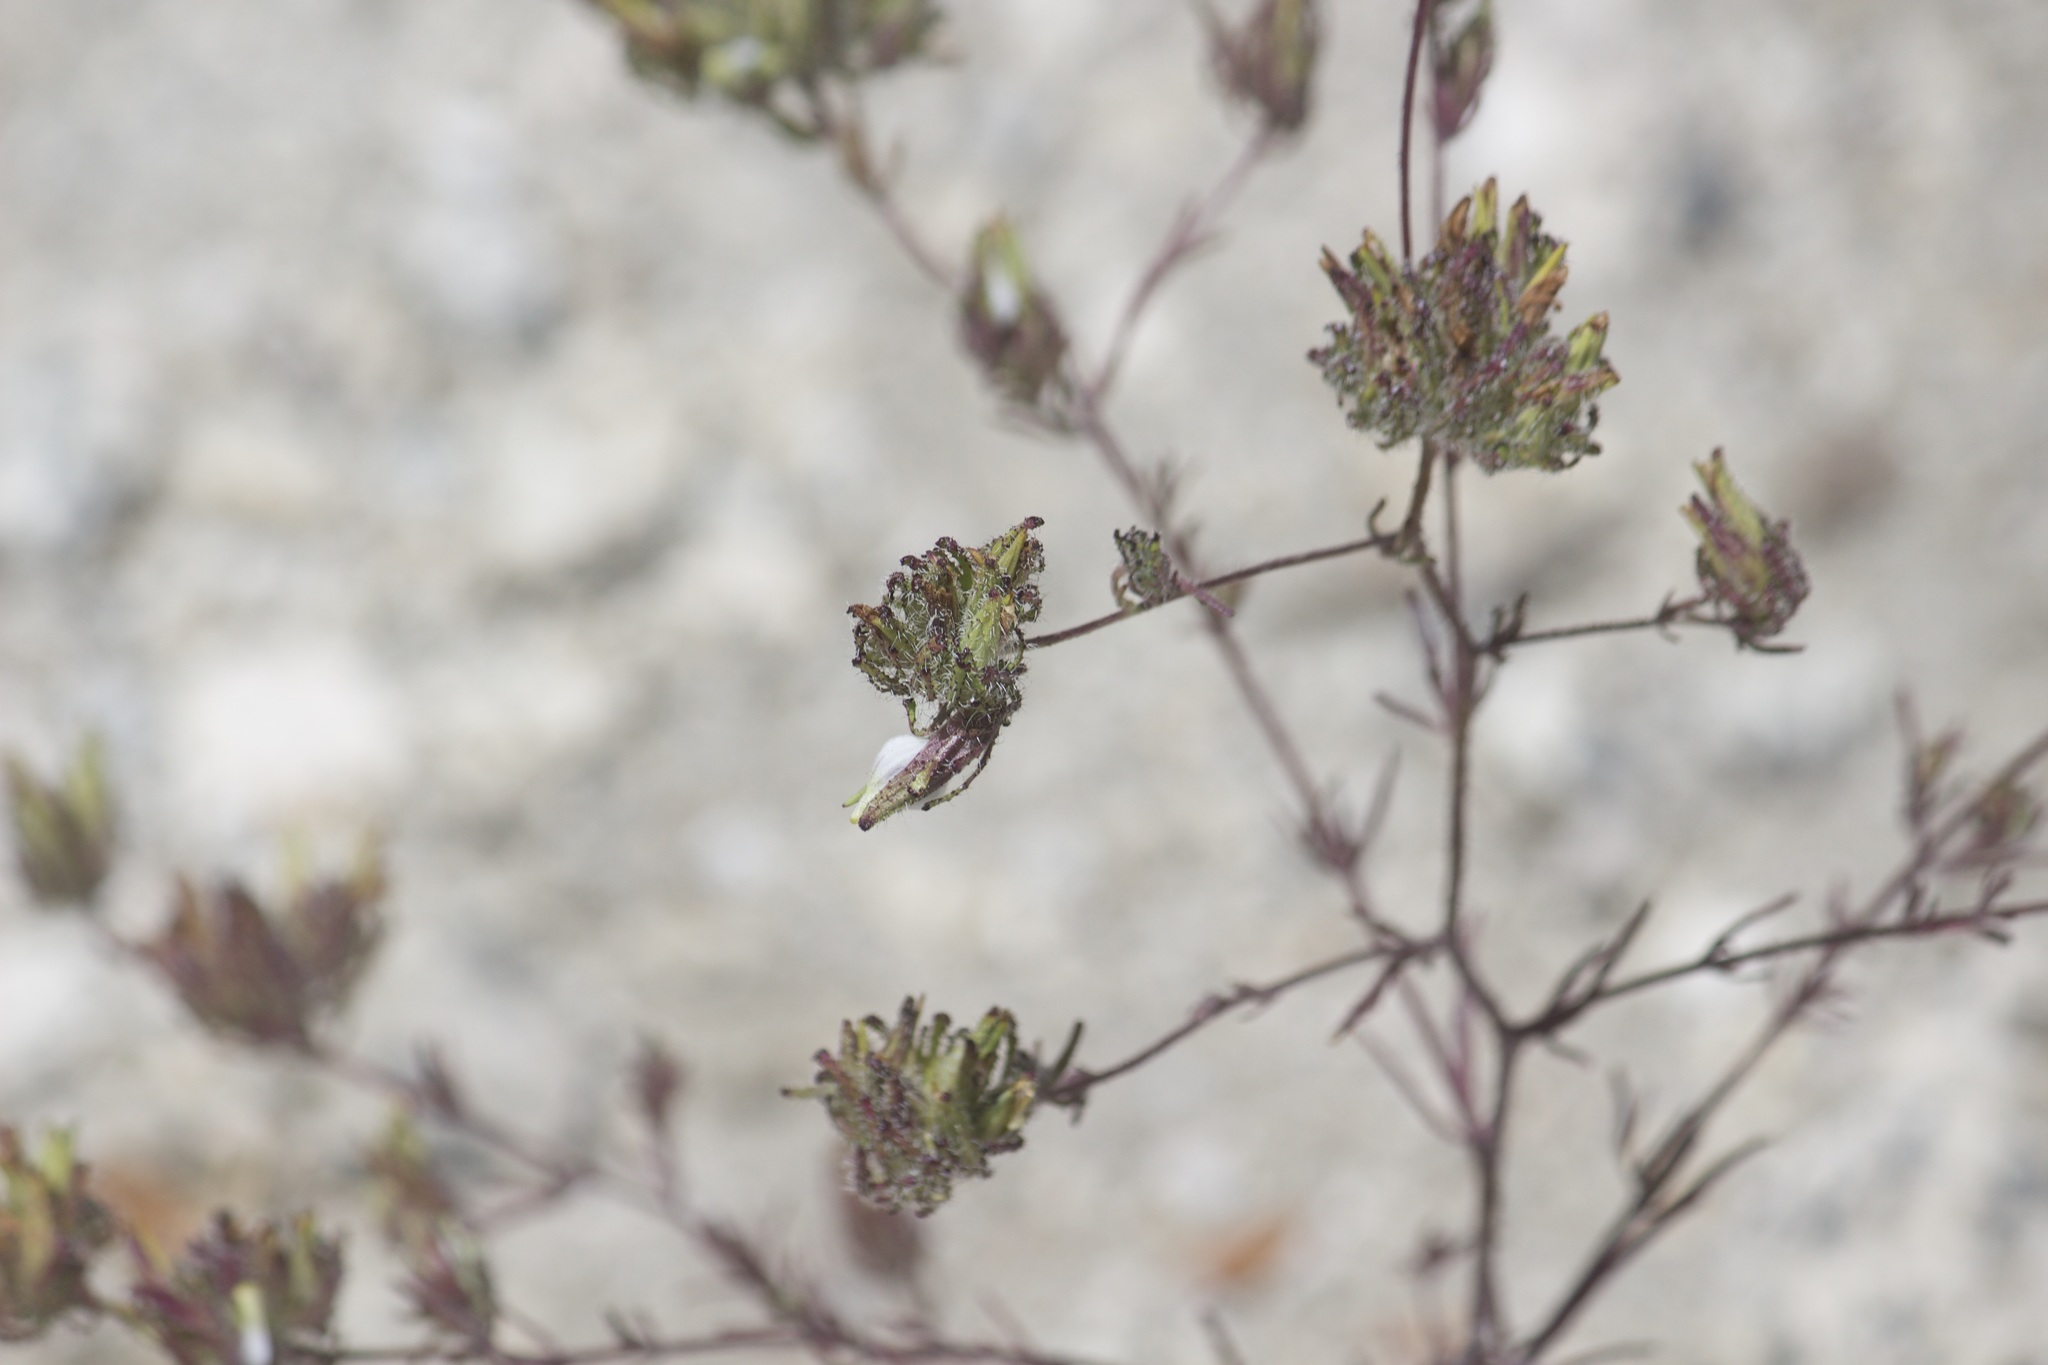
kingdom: Plantae
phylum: Tracheophyta
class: Magnoliopsida
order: Lamiales
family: Orobanchaceae
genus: Cordylanthus
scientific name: Cordylanthus rigidus
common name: Stiff-branch bird's-beak
